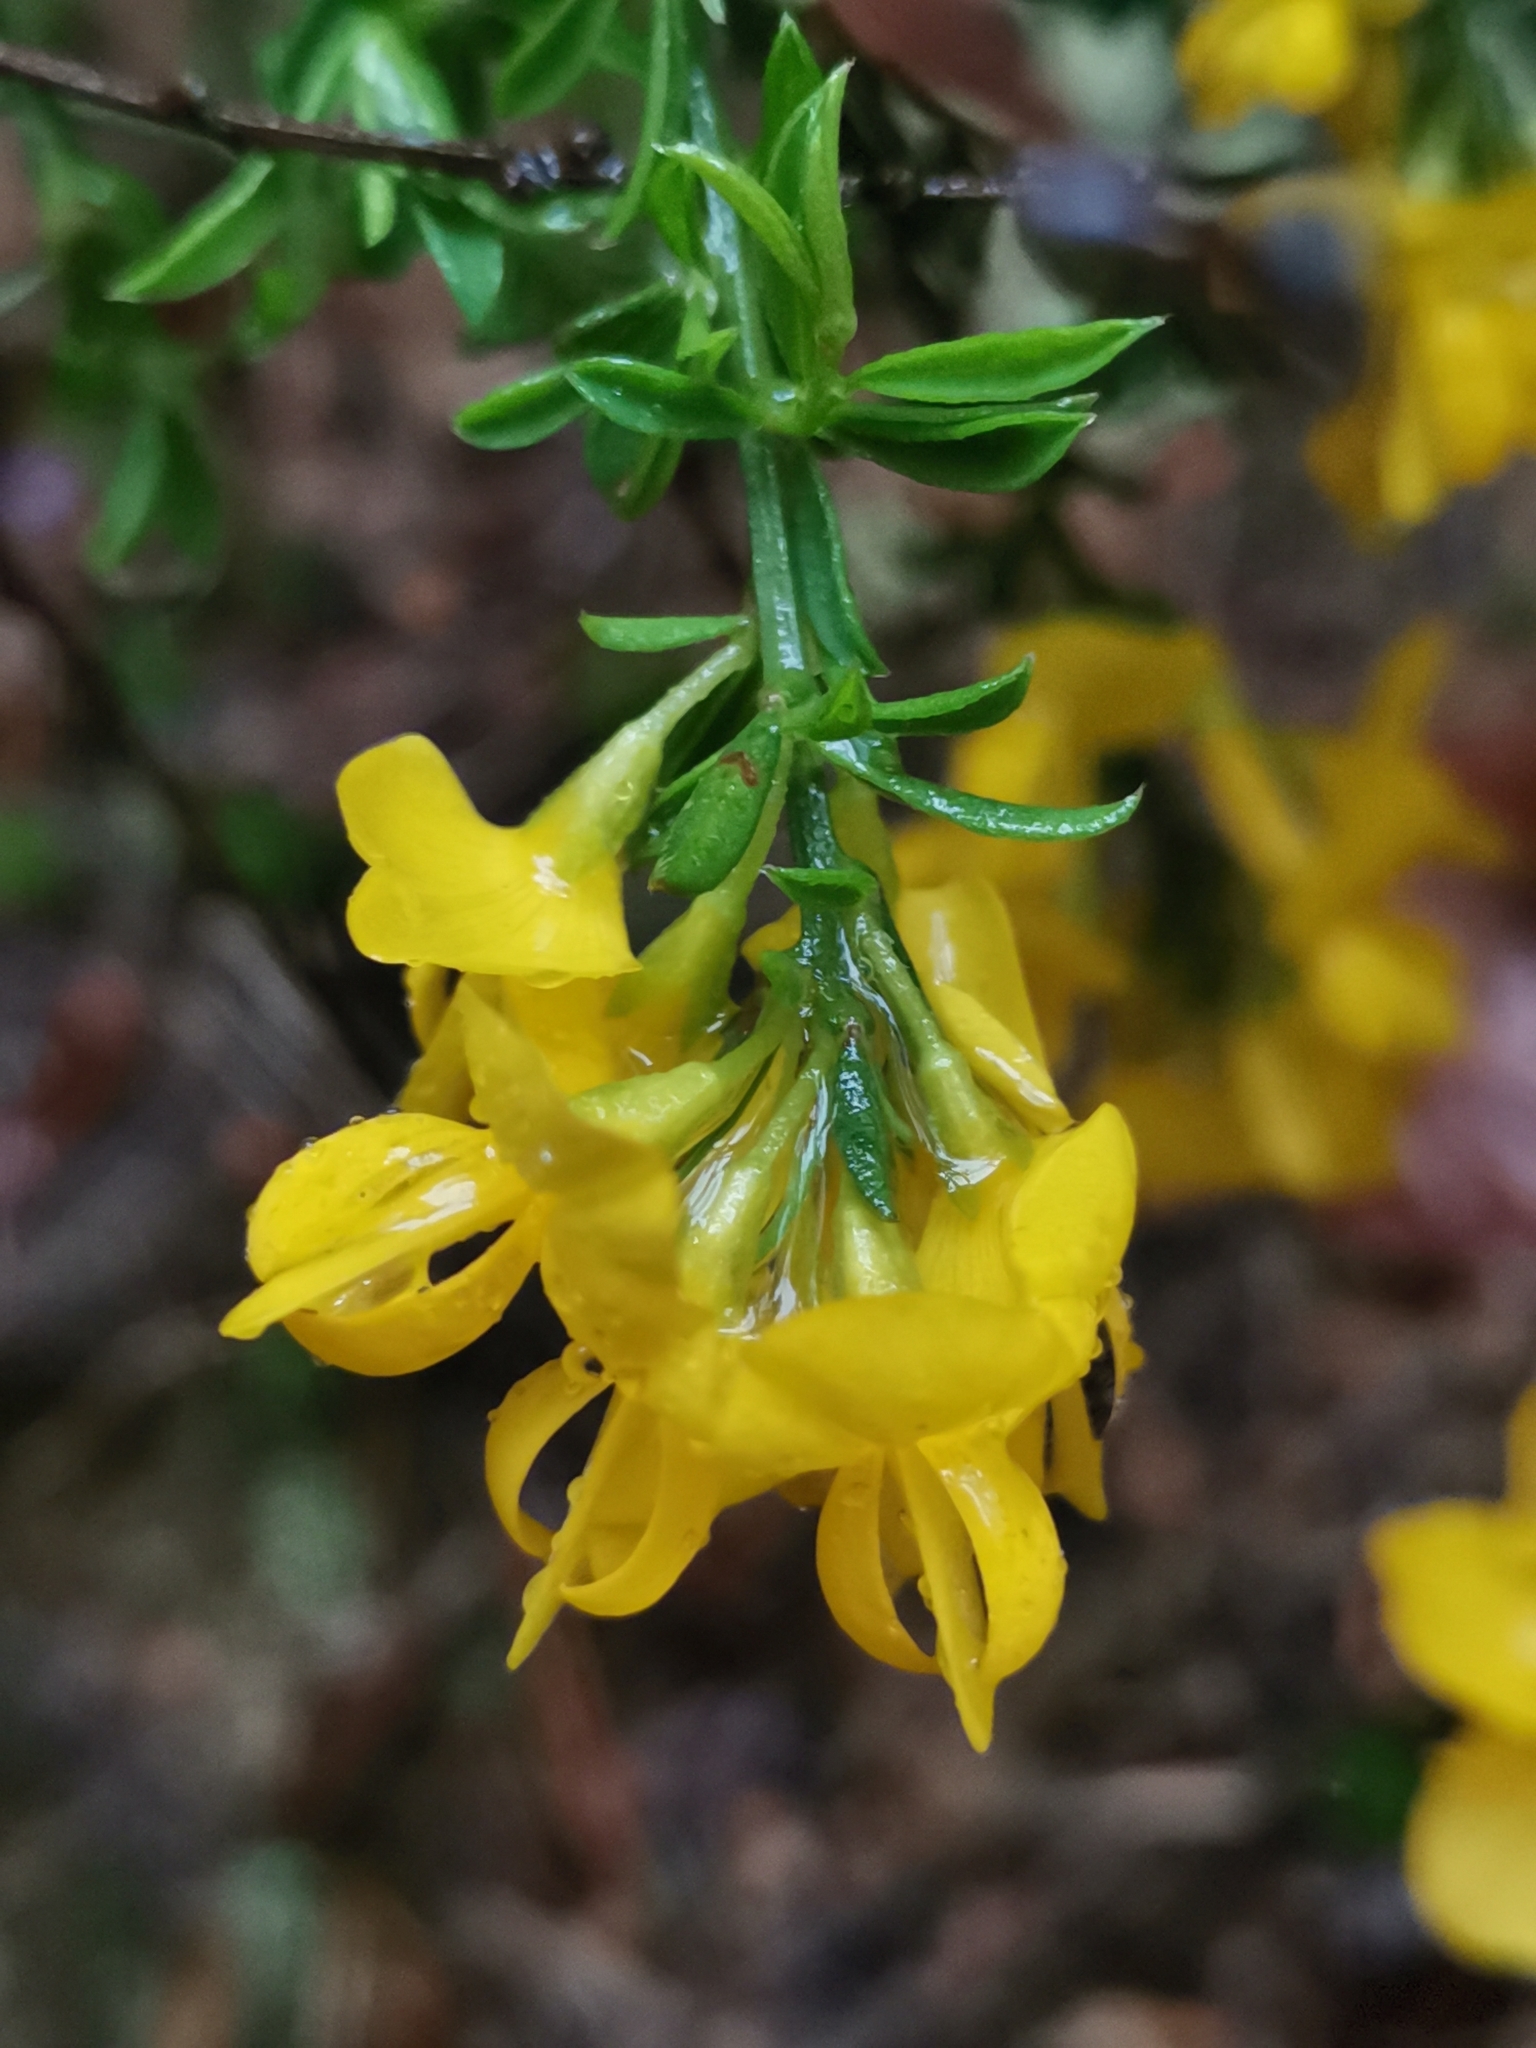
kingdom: Plantae
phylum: Tracheophyta
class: Magnoliopsida
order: Fabales
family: Fabaceae
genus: Genista
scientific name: Genista pilosa
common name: Hairy greenweed
